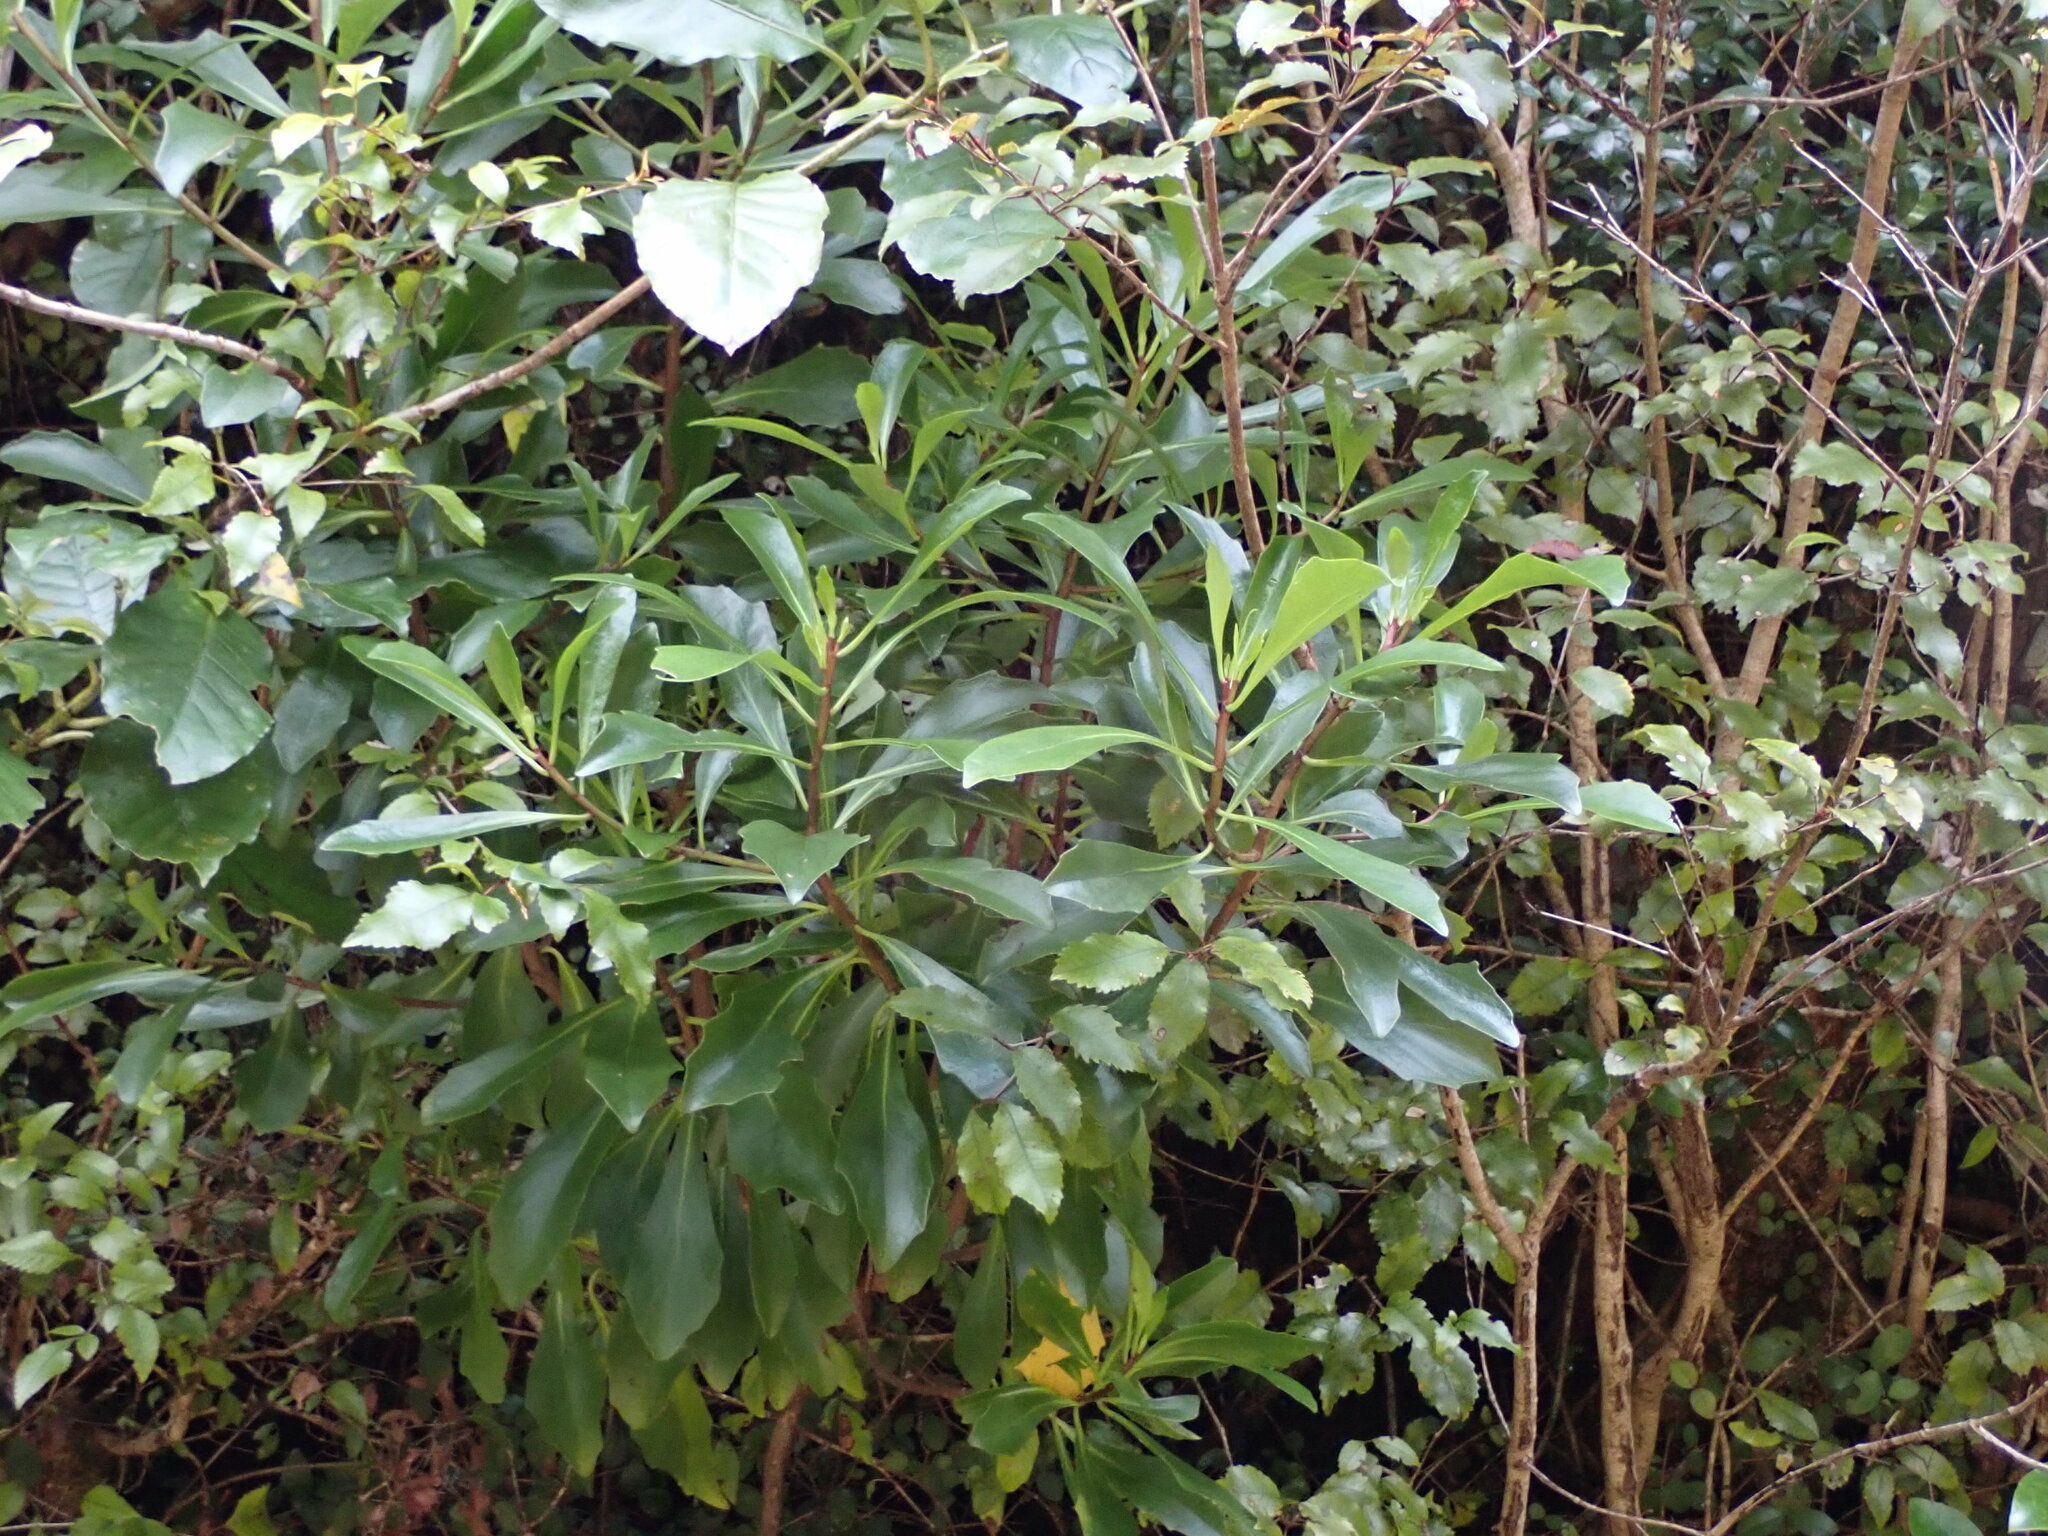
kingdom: Plantae
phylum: Tracheophyta
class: Magnoliopsida
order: Asterales
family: Asteraceae
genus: Brachyglottis
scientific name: Brachyglottis kirkii
